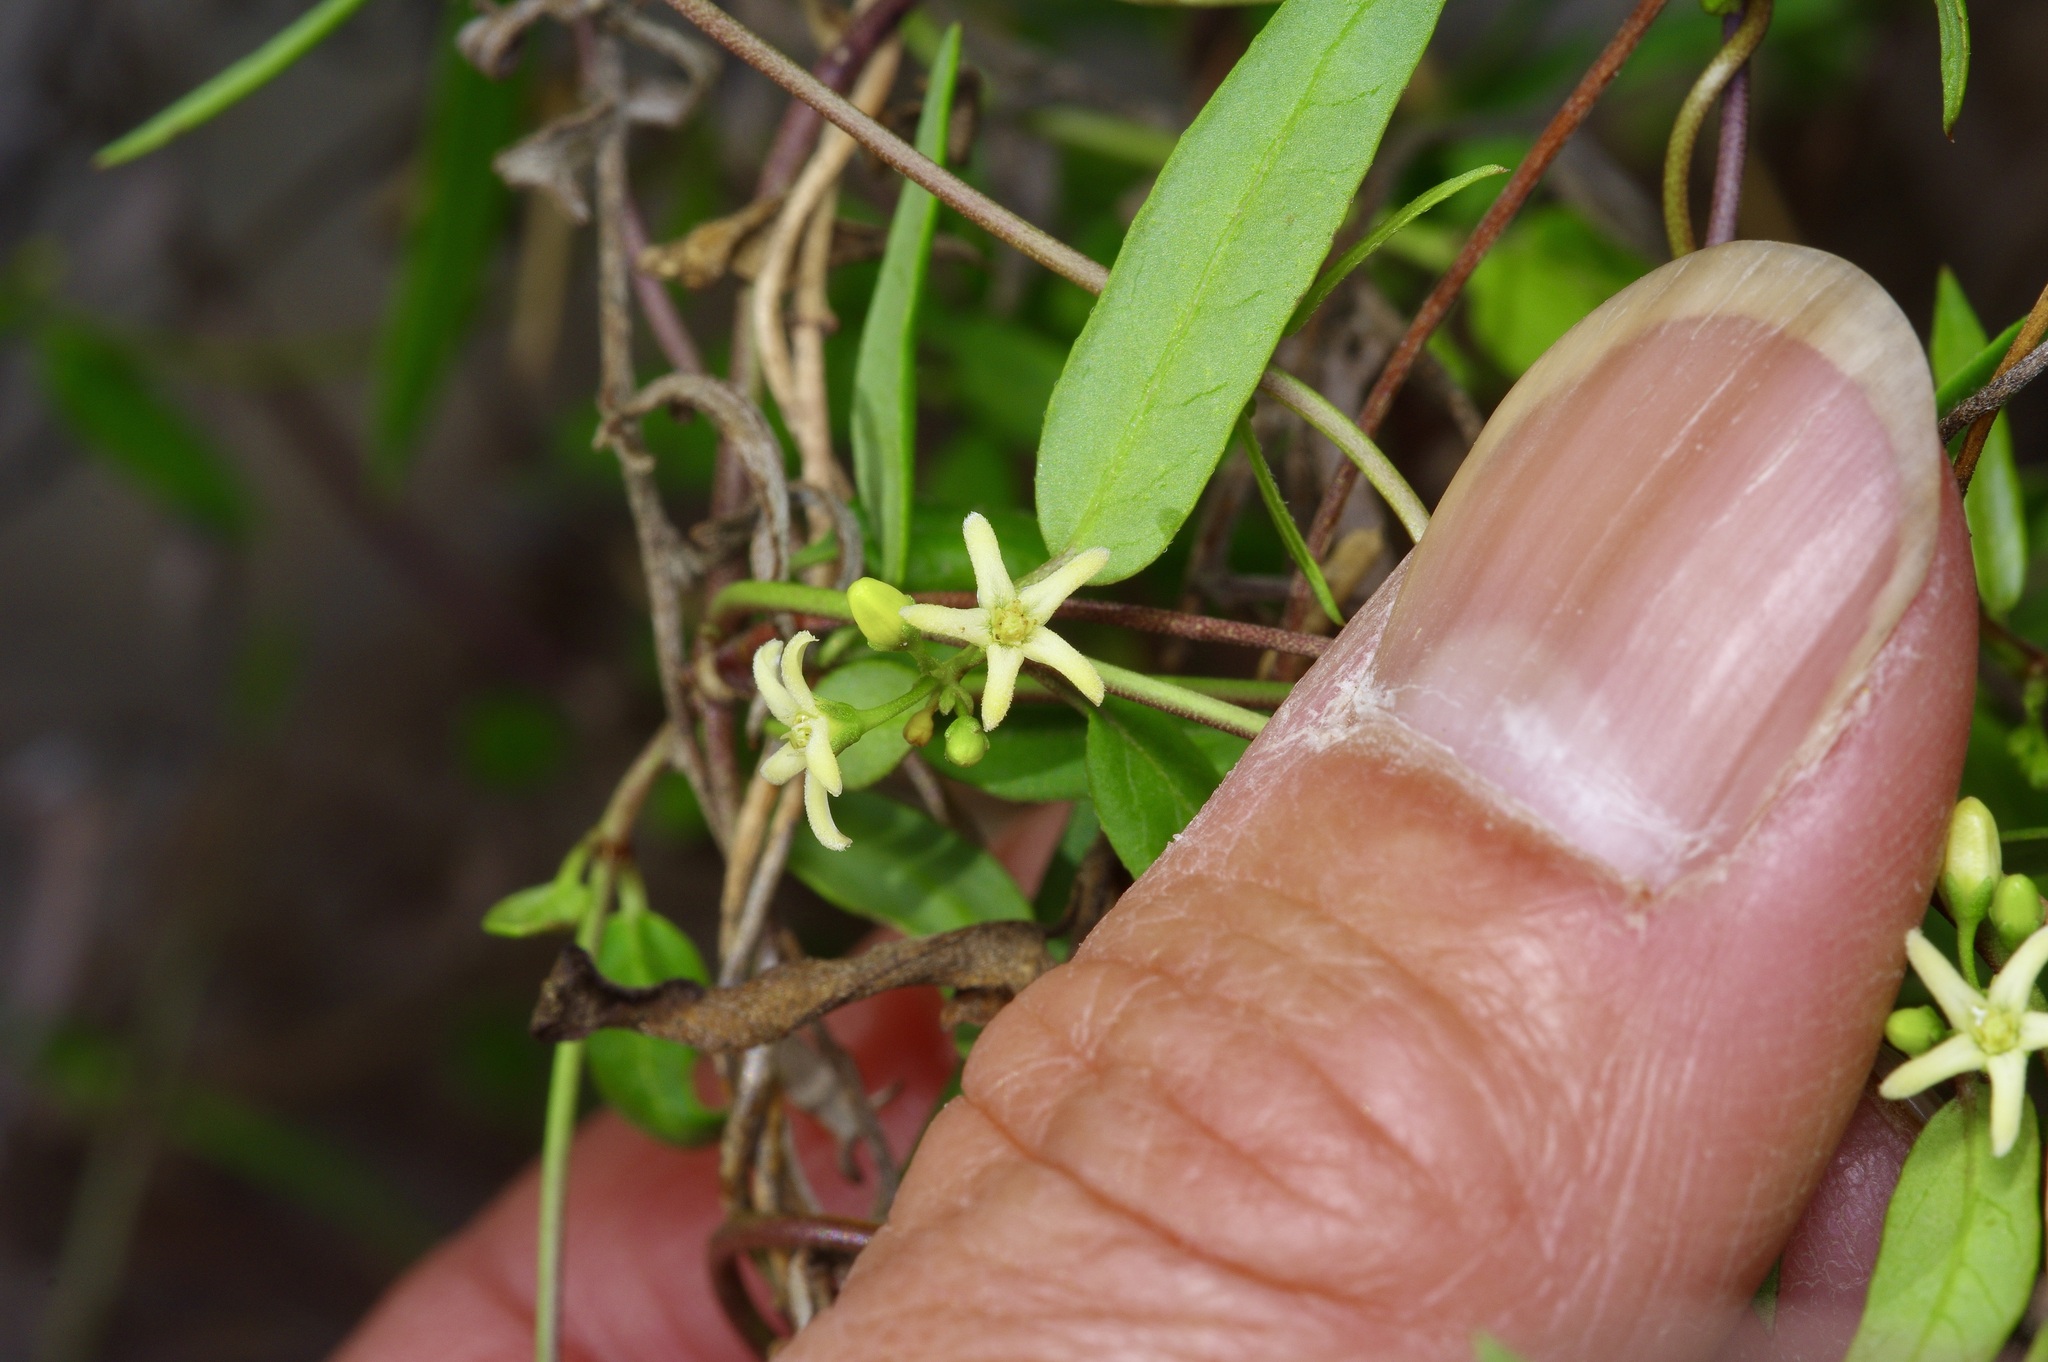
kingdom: Plantae
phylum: Tracheophyta
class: Magnoliopsida
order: Gentianales
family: Apocynaceae
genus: Metastelma
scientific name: Metastelma palmeri
